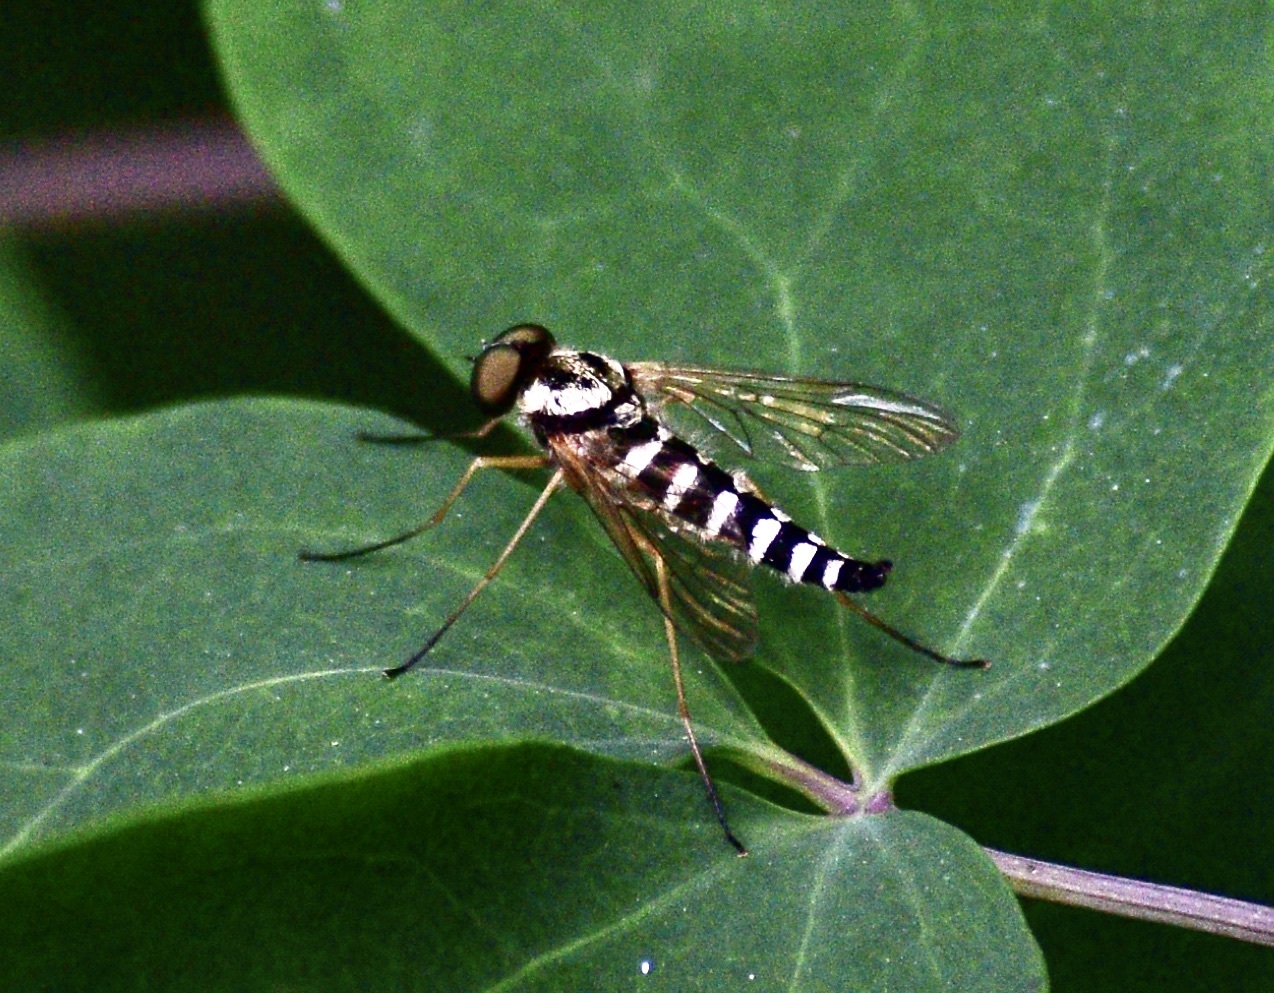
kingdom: Animalia
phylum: Arthropoda
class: Insecta
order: Diptera
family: Rhagionidae
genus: Chrysopilus
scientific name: Chrysopilus ornatus
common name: Ornate snipe fly
